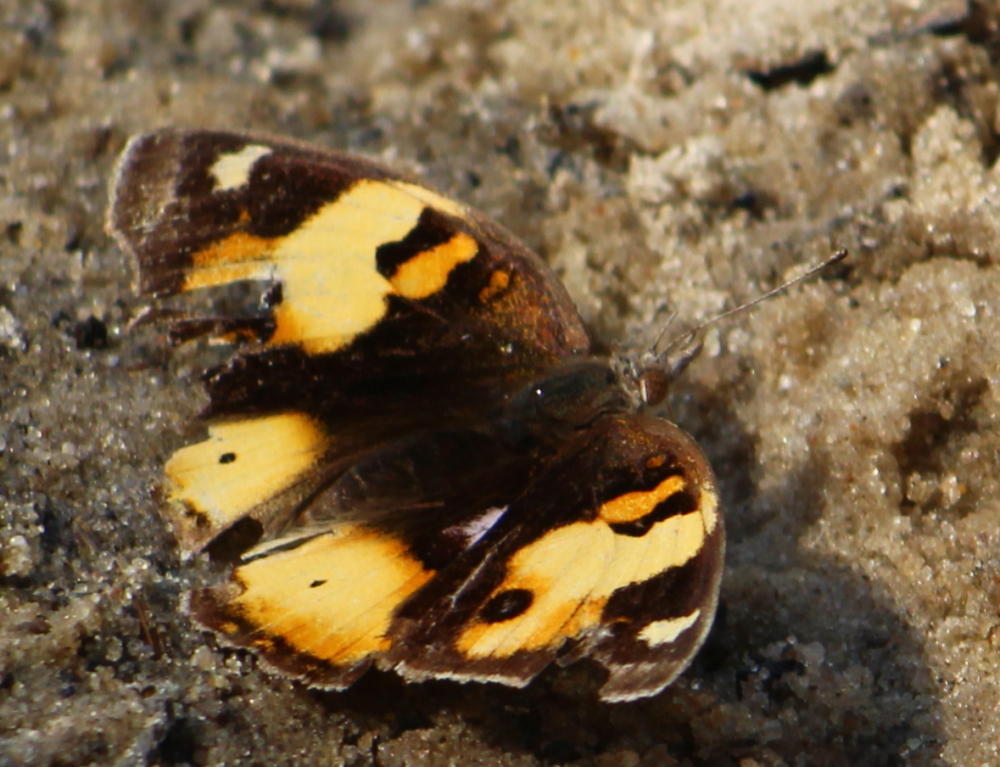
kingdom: Animalia
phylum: Arthropoda
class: Insecta
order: Lepidoptera
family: Nymphalidae
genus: Junonia
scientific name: Junonia hierta
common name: Yellow pansy
